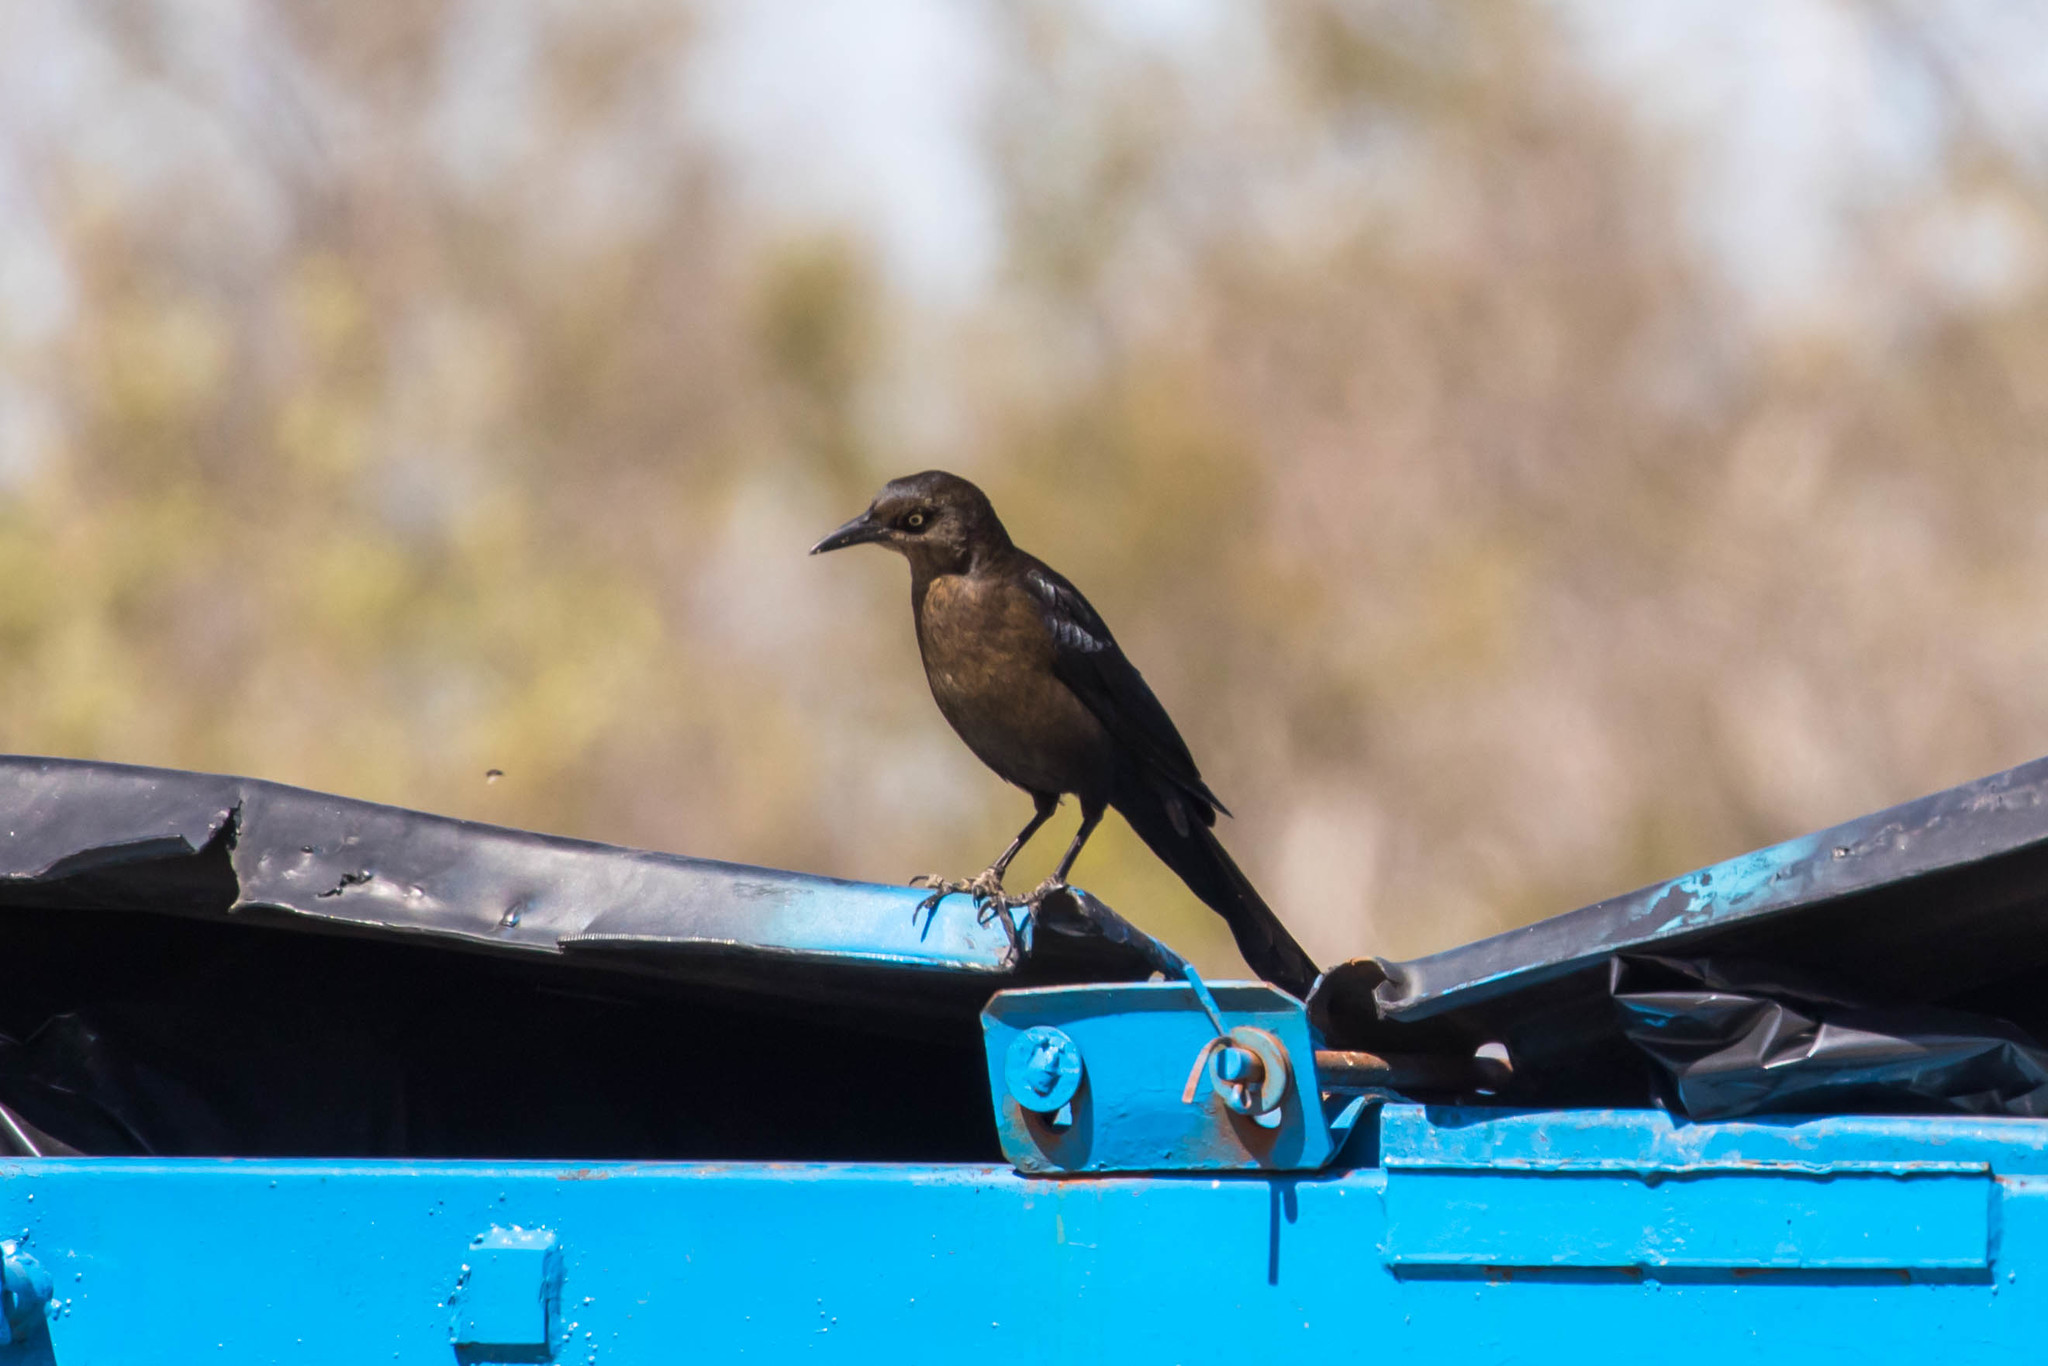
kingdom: Animalia
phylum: Chordata
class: Aves
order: Passeriformes
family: Icteridae
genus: Quiscalus
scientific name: Quiscalus mexicanus
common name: Great-tailed grackle
